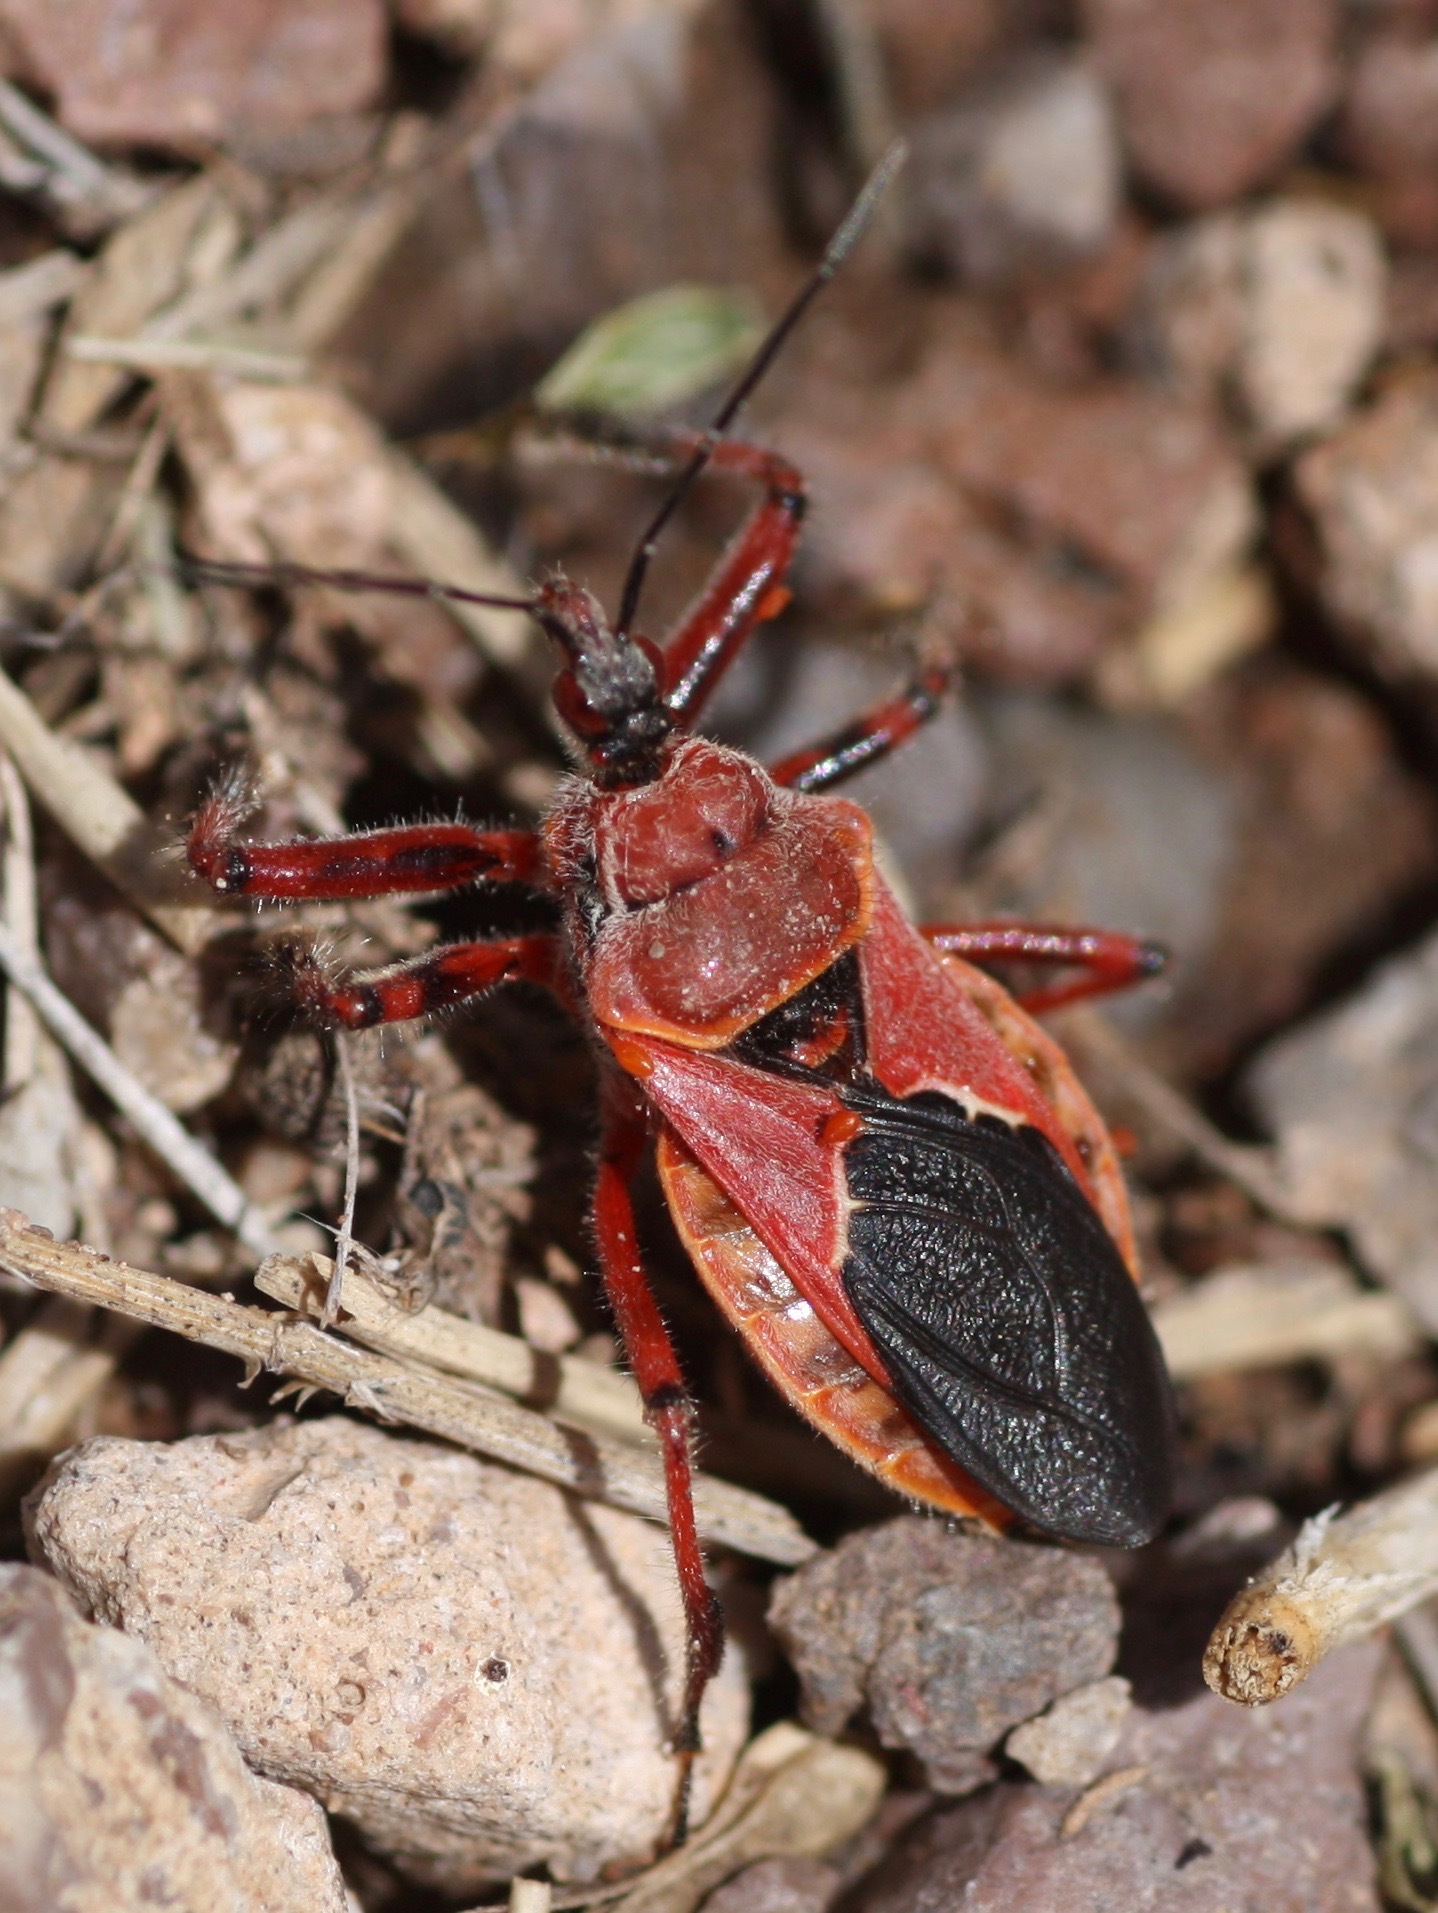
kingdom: Animalia
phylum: Arthropoda
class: Insecta
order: Hemiptera
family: Reduviidae
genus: Apiomerus
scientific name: Apiomerus cazieri
